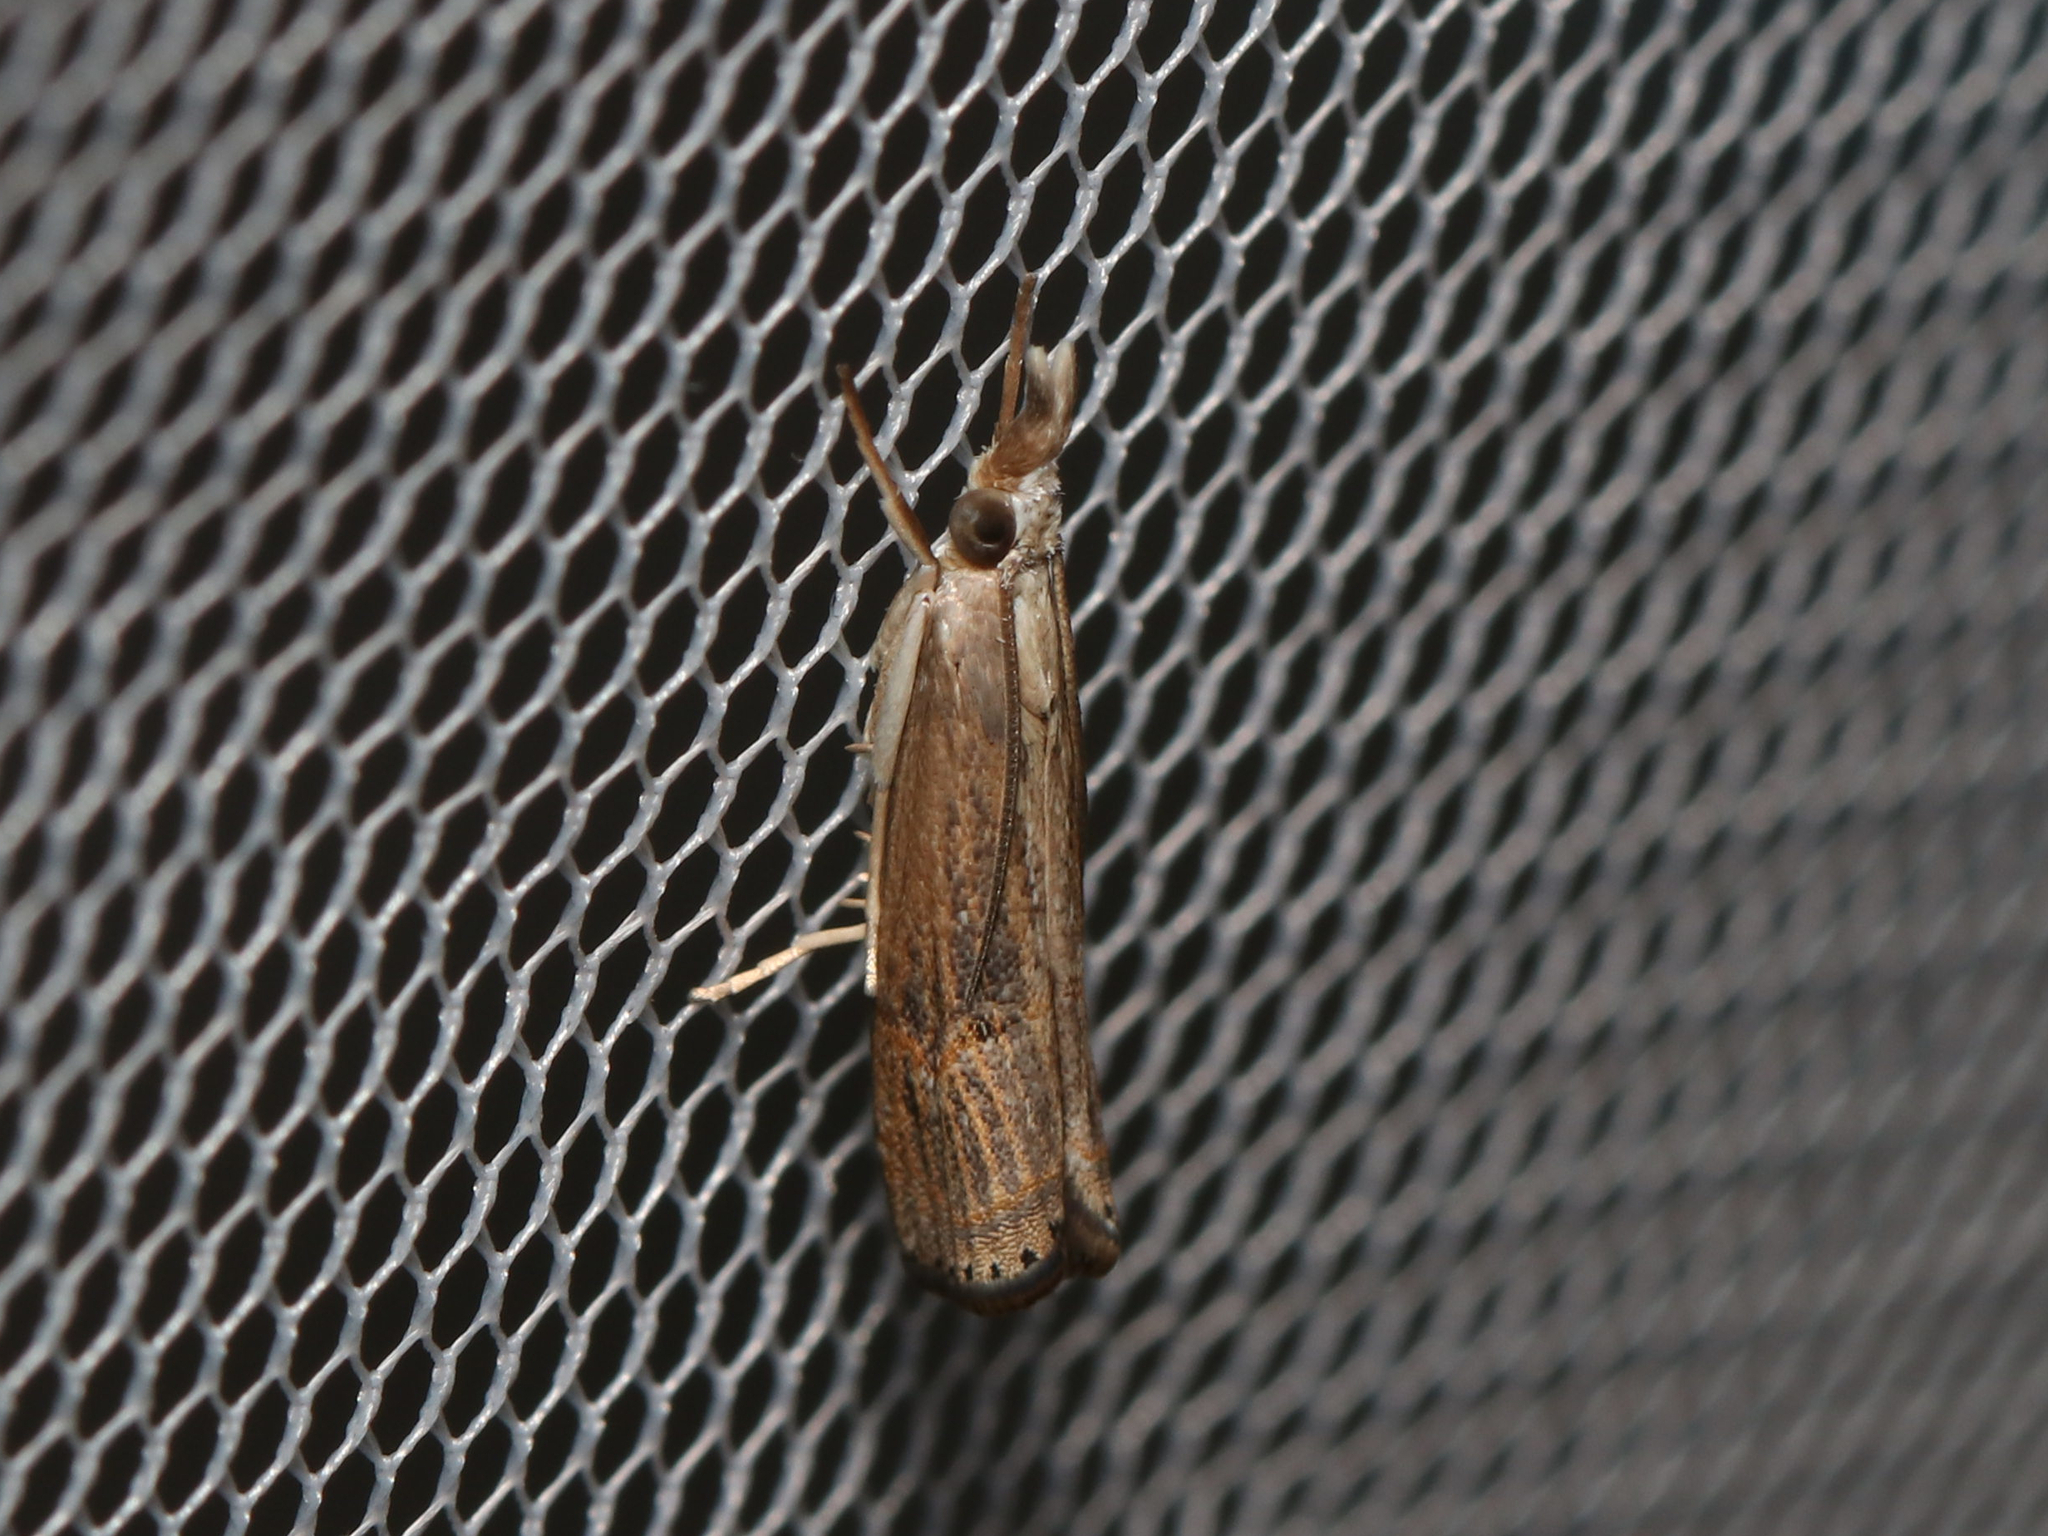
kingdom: Animalia
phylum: Arthropoda
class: Insecta
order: Lepidoptera
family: Crambidae
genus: Parapediasia
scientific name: Parapediasia teterellus
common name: Bluegrass webworm moth
